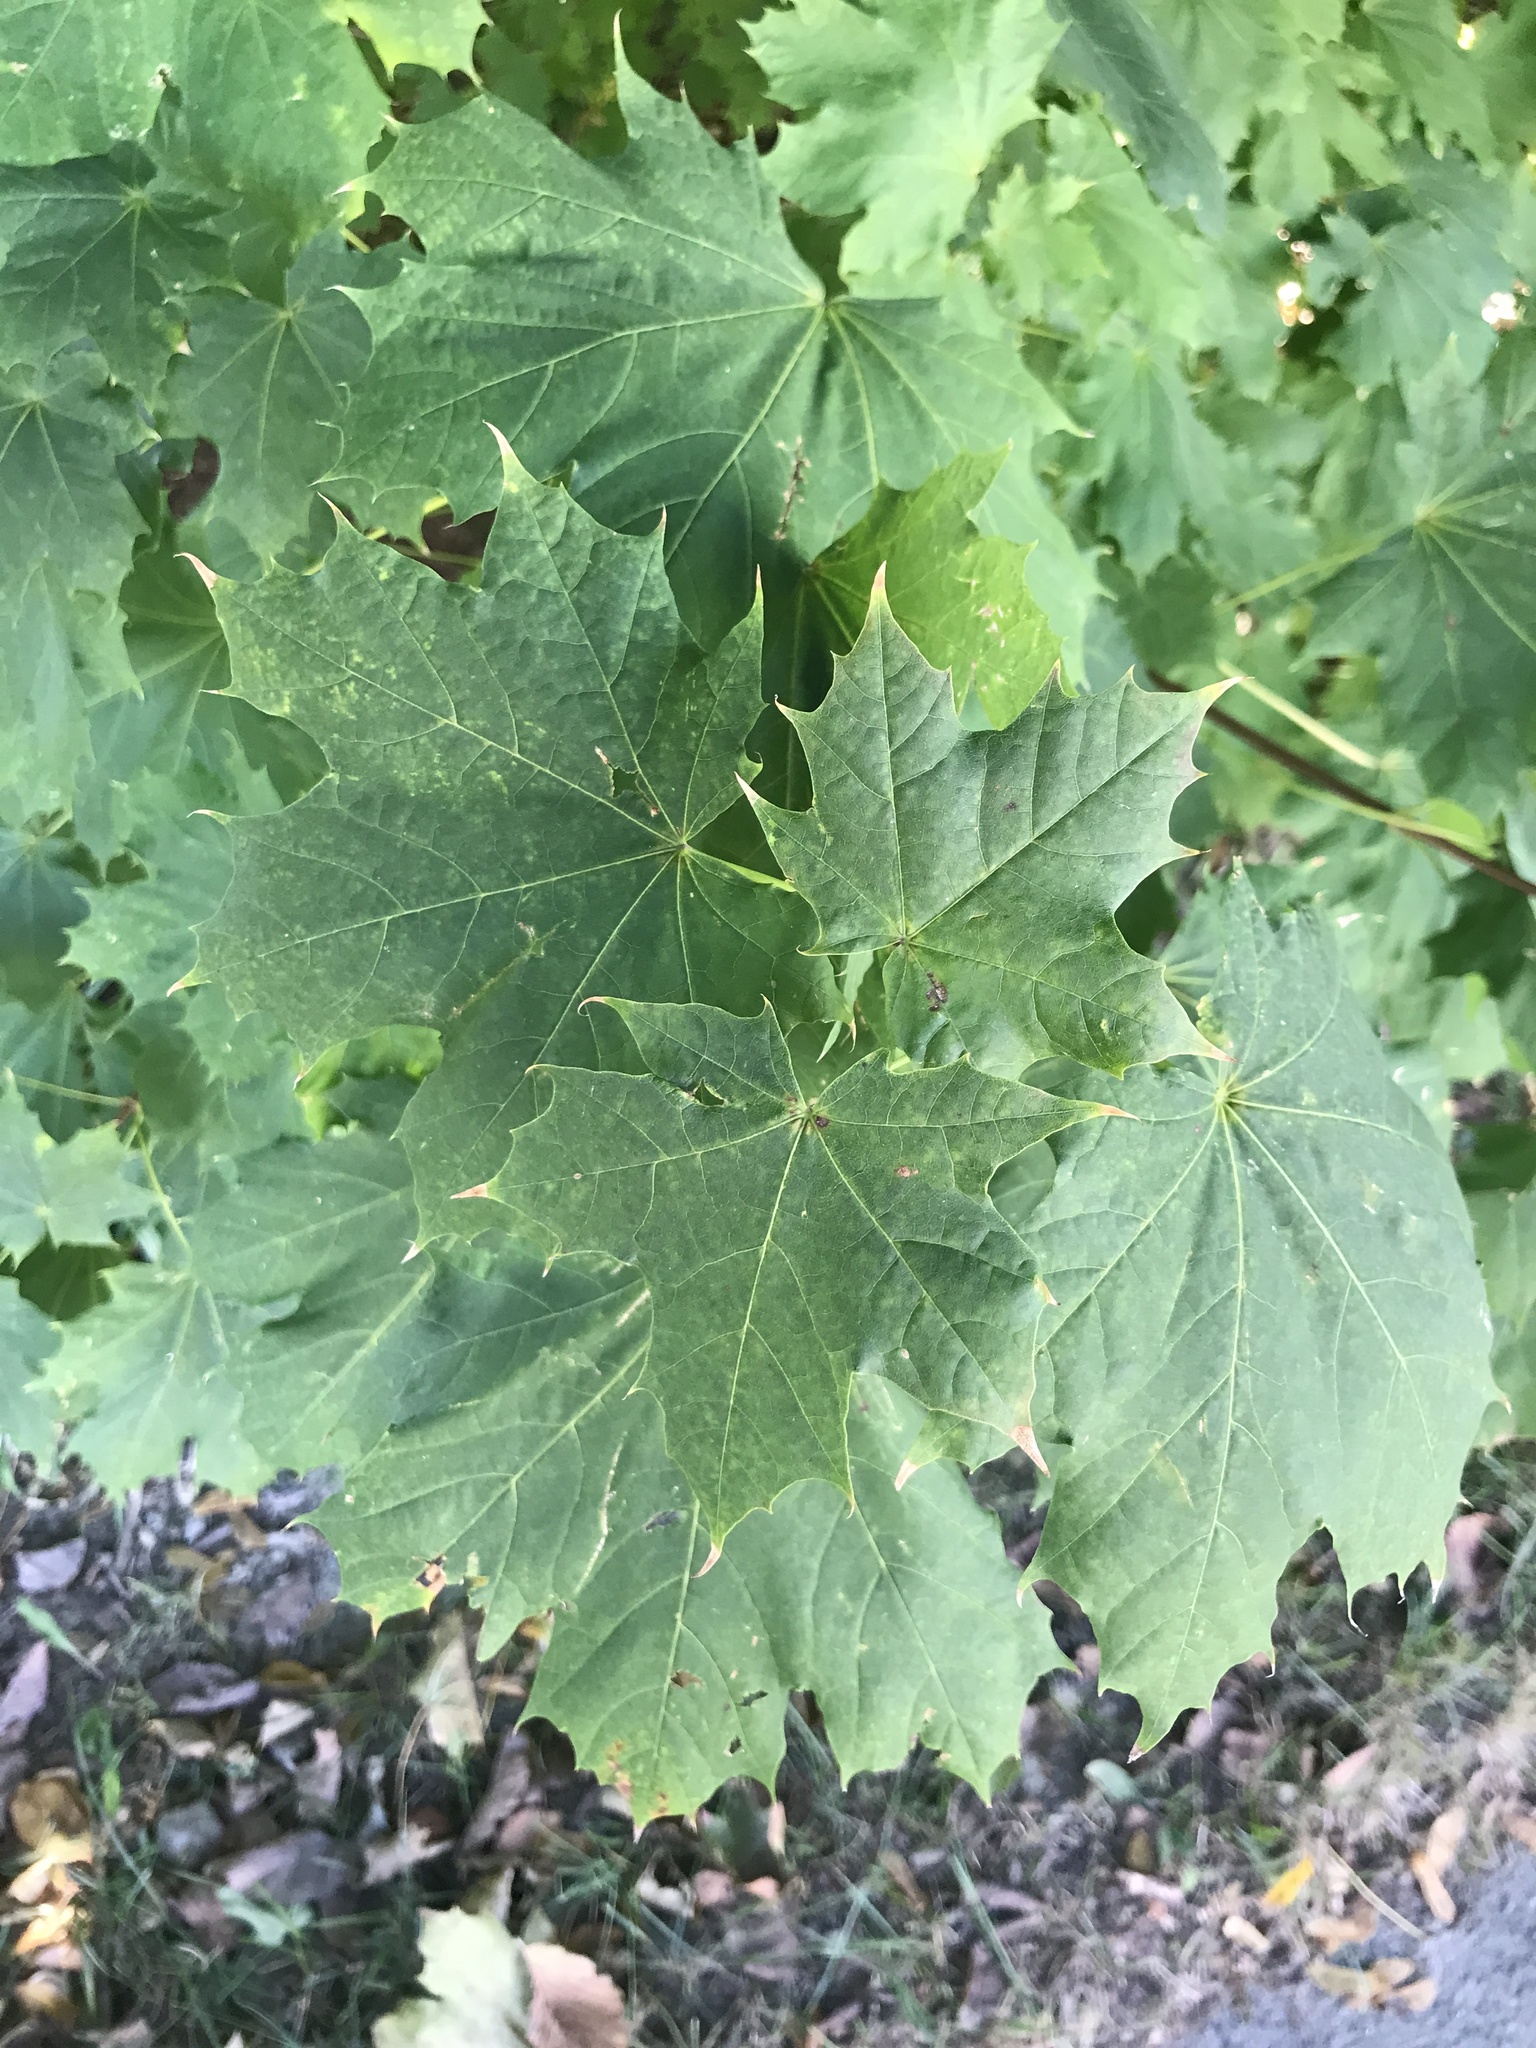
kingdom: Plantae
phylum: Tracheophyta
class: Magnoliopsida
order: Sapindales
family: Sapindaceae
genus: Acer
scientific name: Acer platanoides
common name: Norway maple
